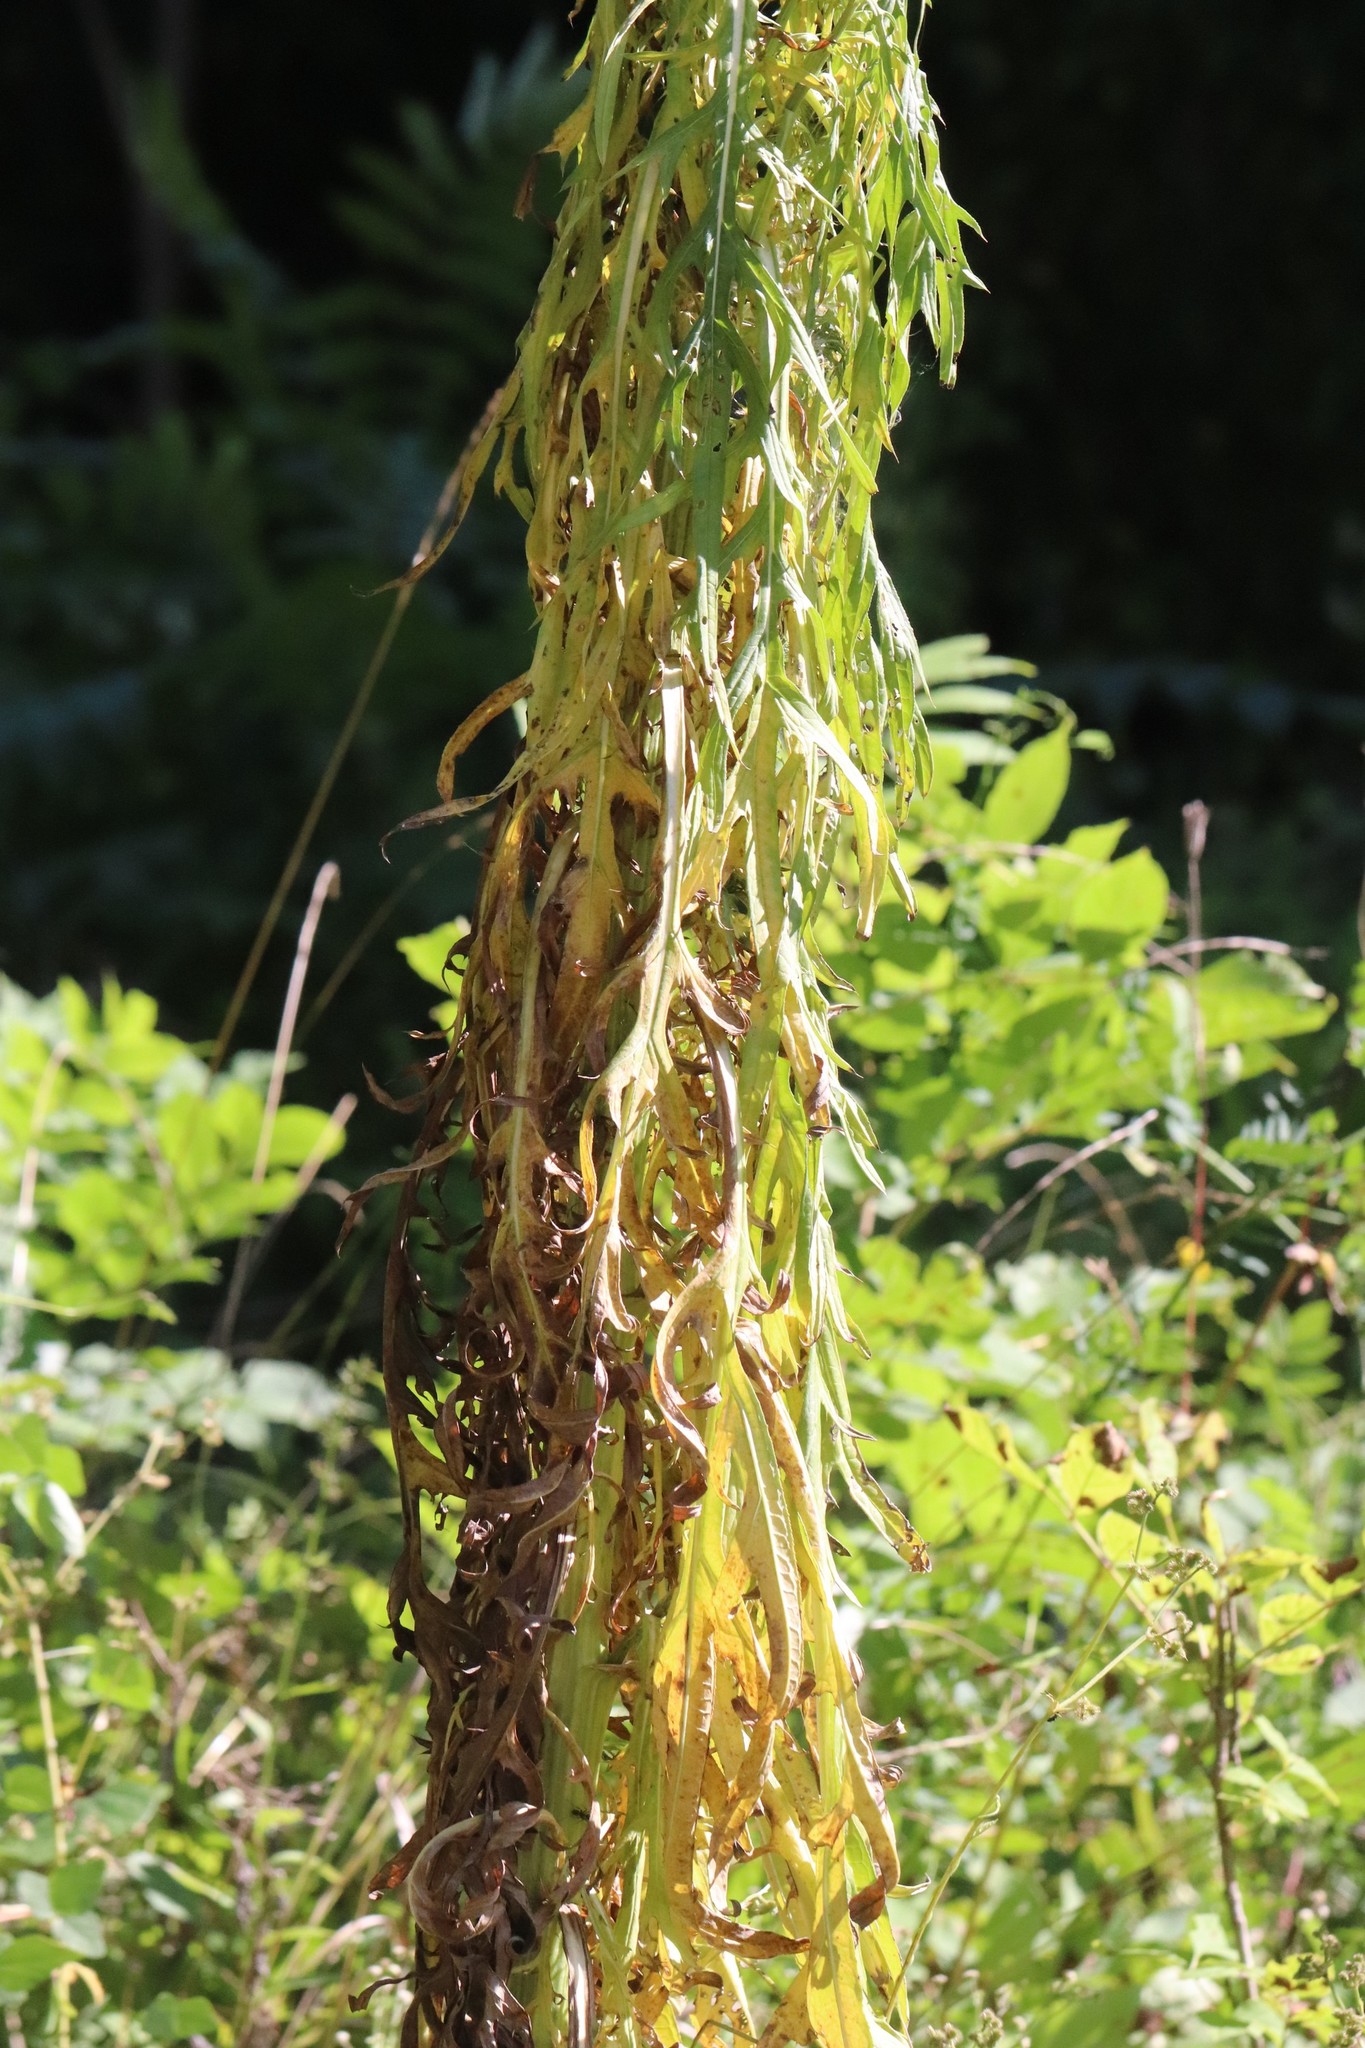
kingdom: Plantae
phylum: Tracheophyta
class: Magnoliopsida
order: Asterales
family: Asteraceae
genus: Cirsium
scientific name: Cirsium pendulum
